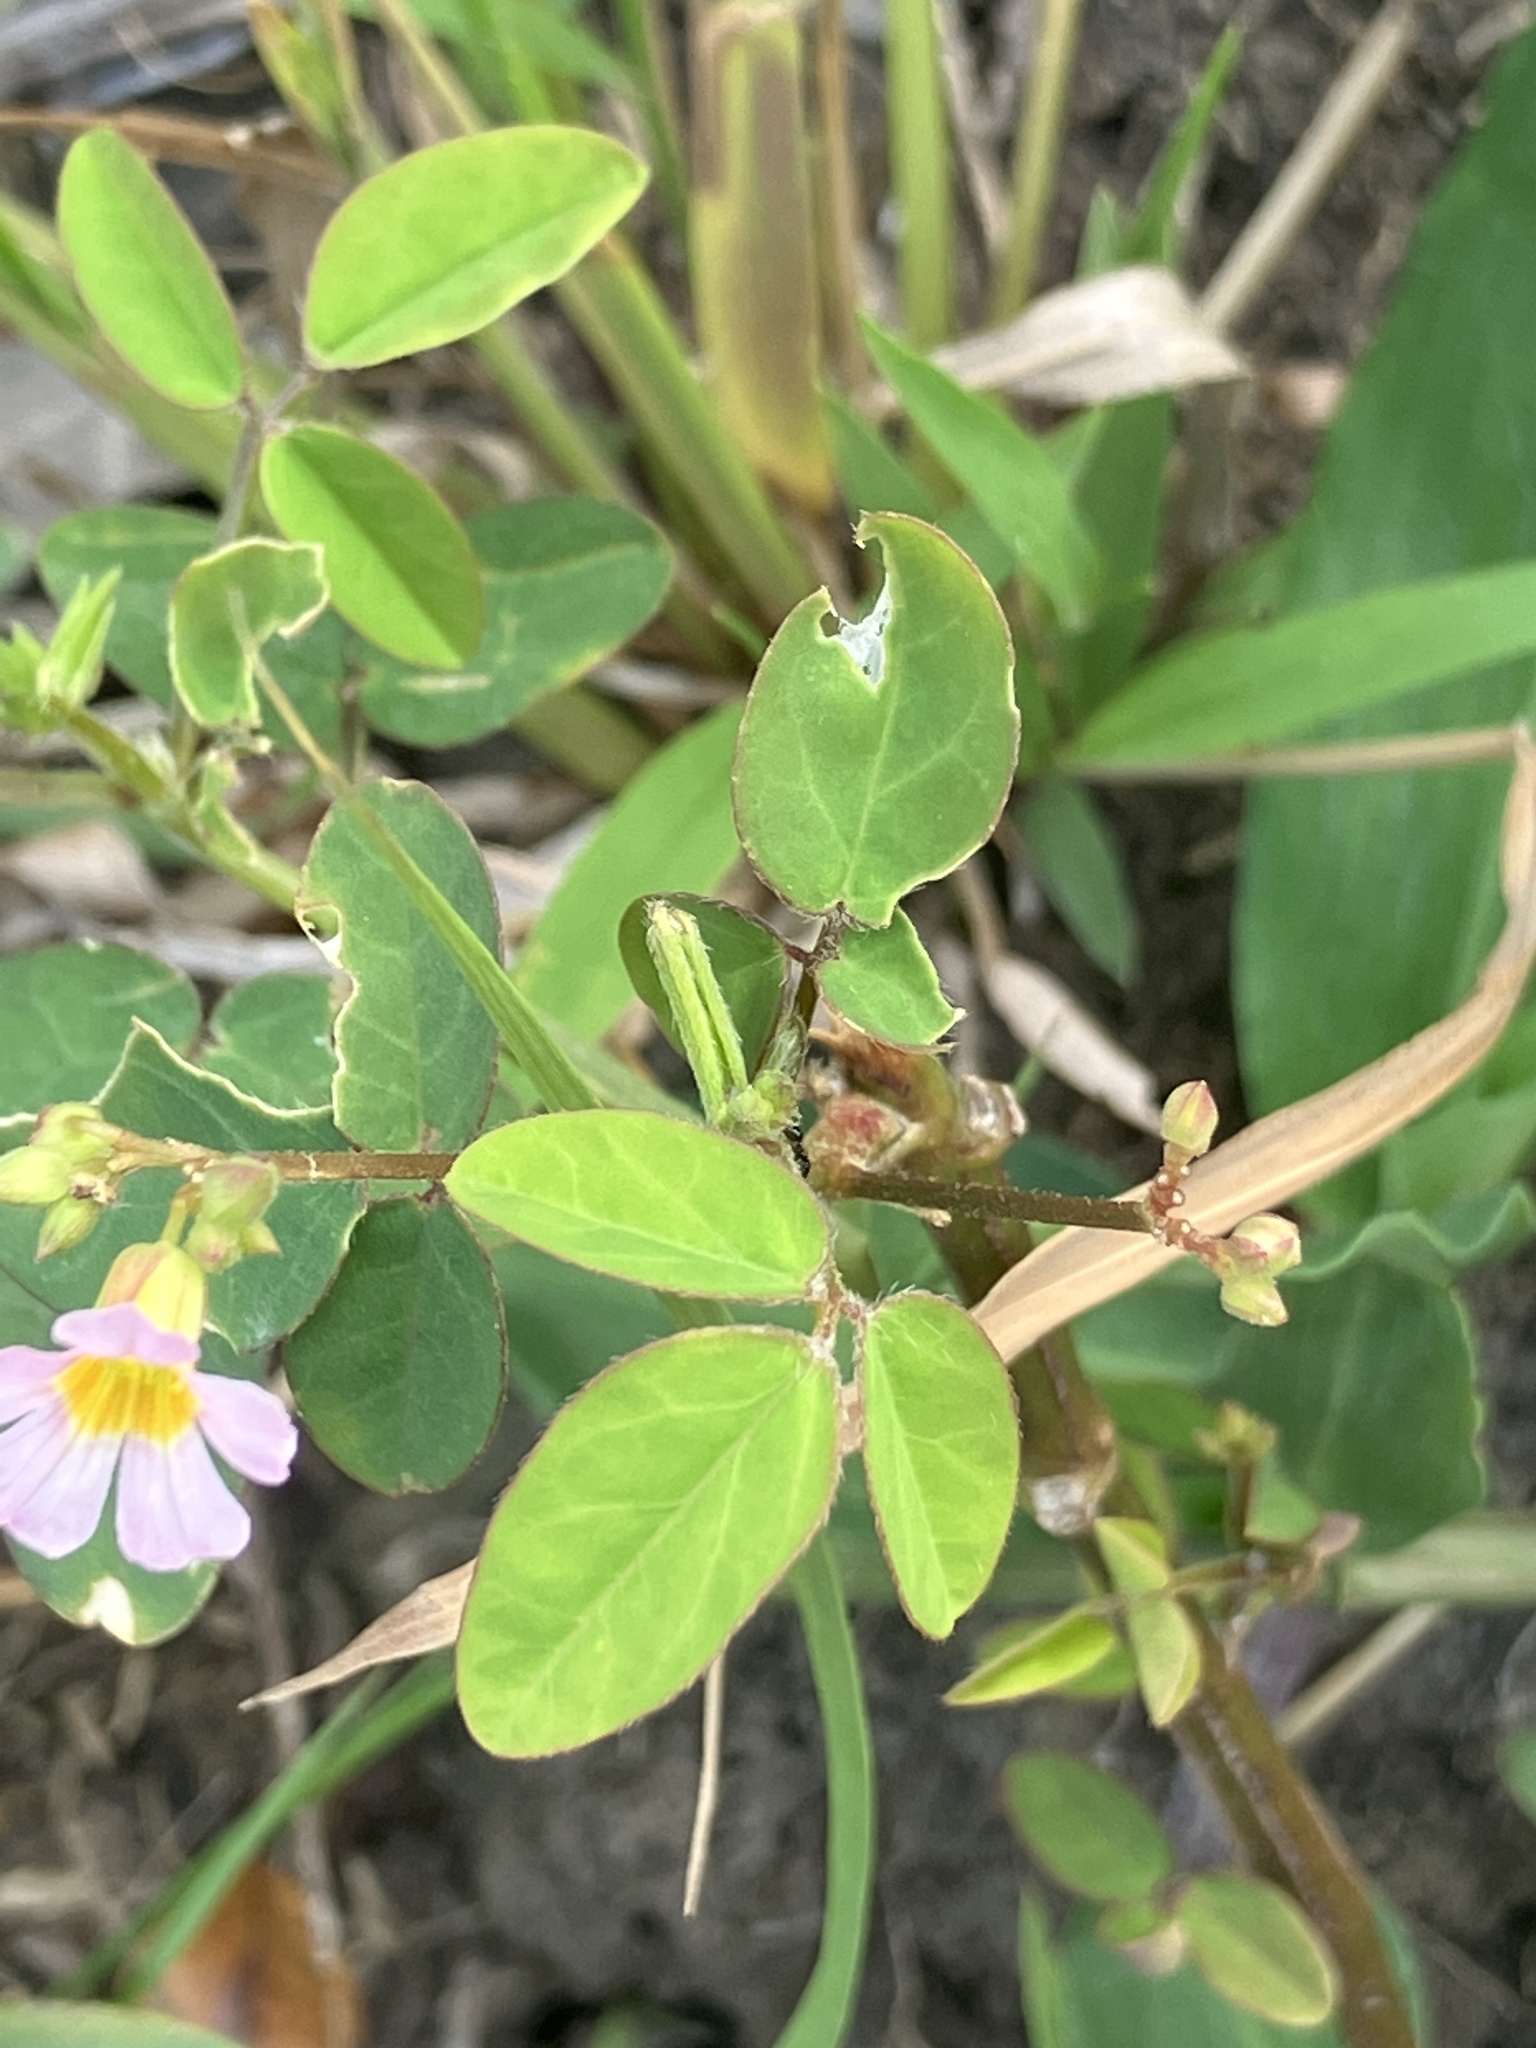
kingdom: Plantae
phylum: Tracheophyta
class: Magnoliopsida
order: Oxalidales
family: Oxalidaceae
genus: Oxalis
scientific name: Oxalis barrelieri
